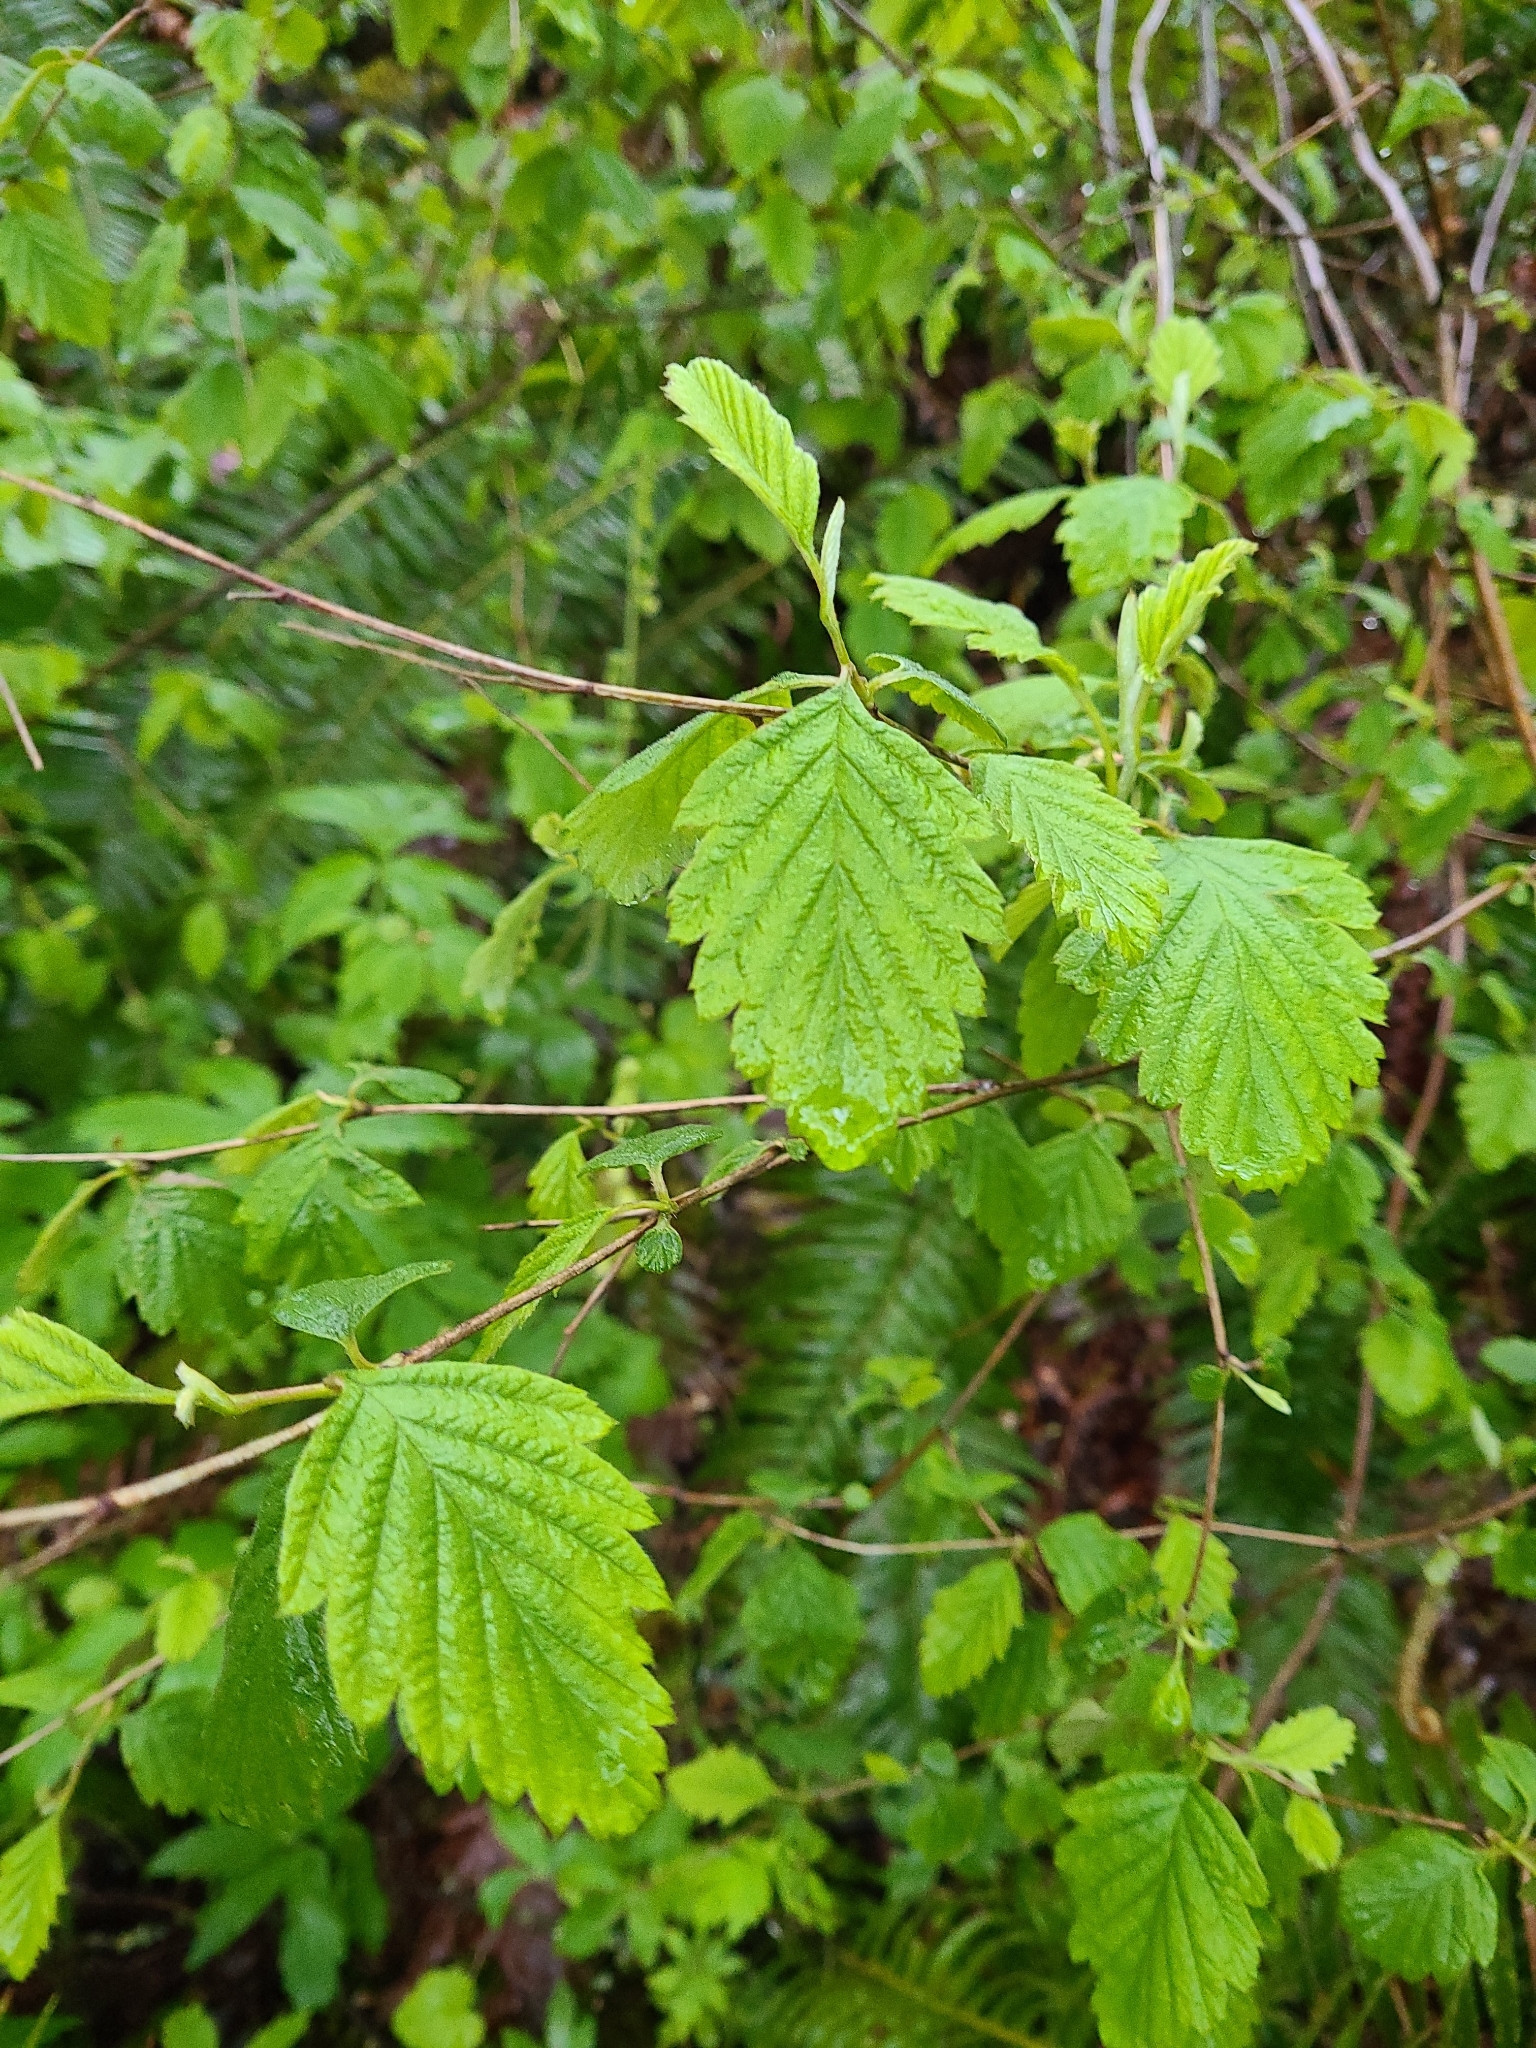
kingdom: Plantae
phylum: Tracheophyta
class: Magnoliopsida
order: Rosales
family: Rosaceae
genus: Holodiscus
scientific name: Holodiscus discolor
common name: Oceanspray
